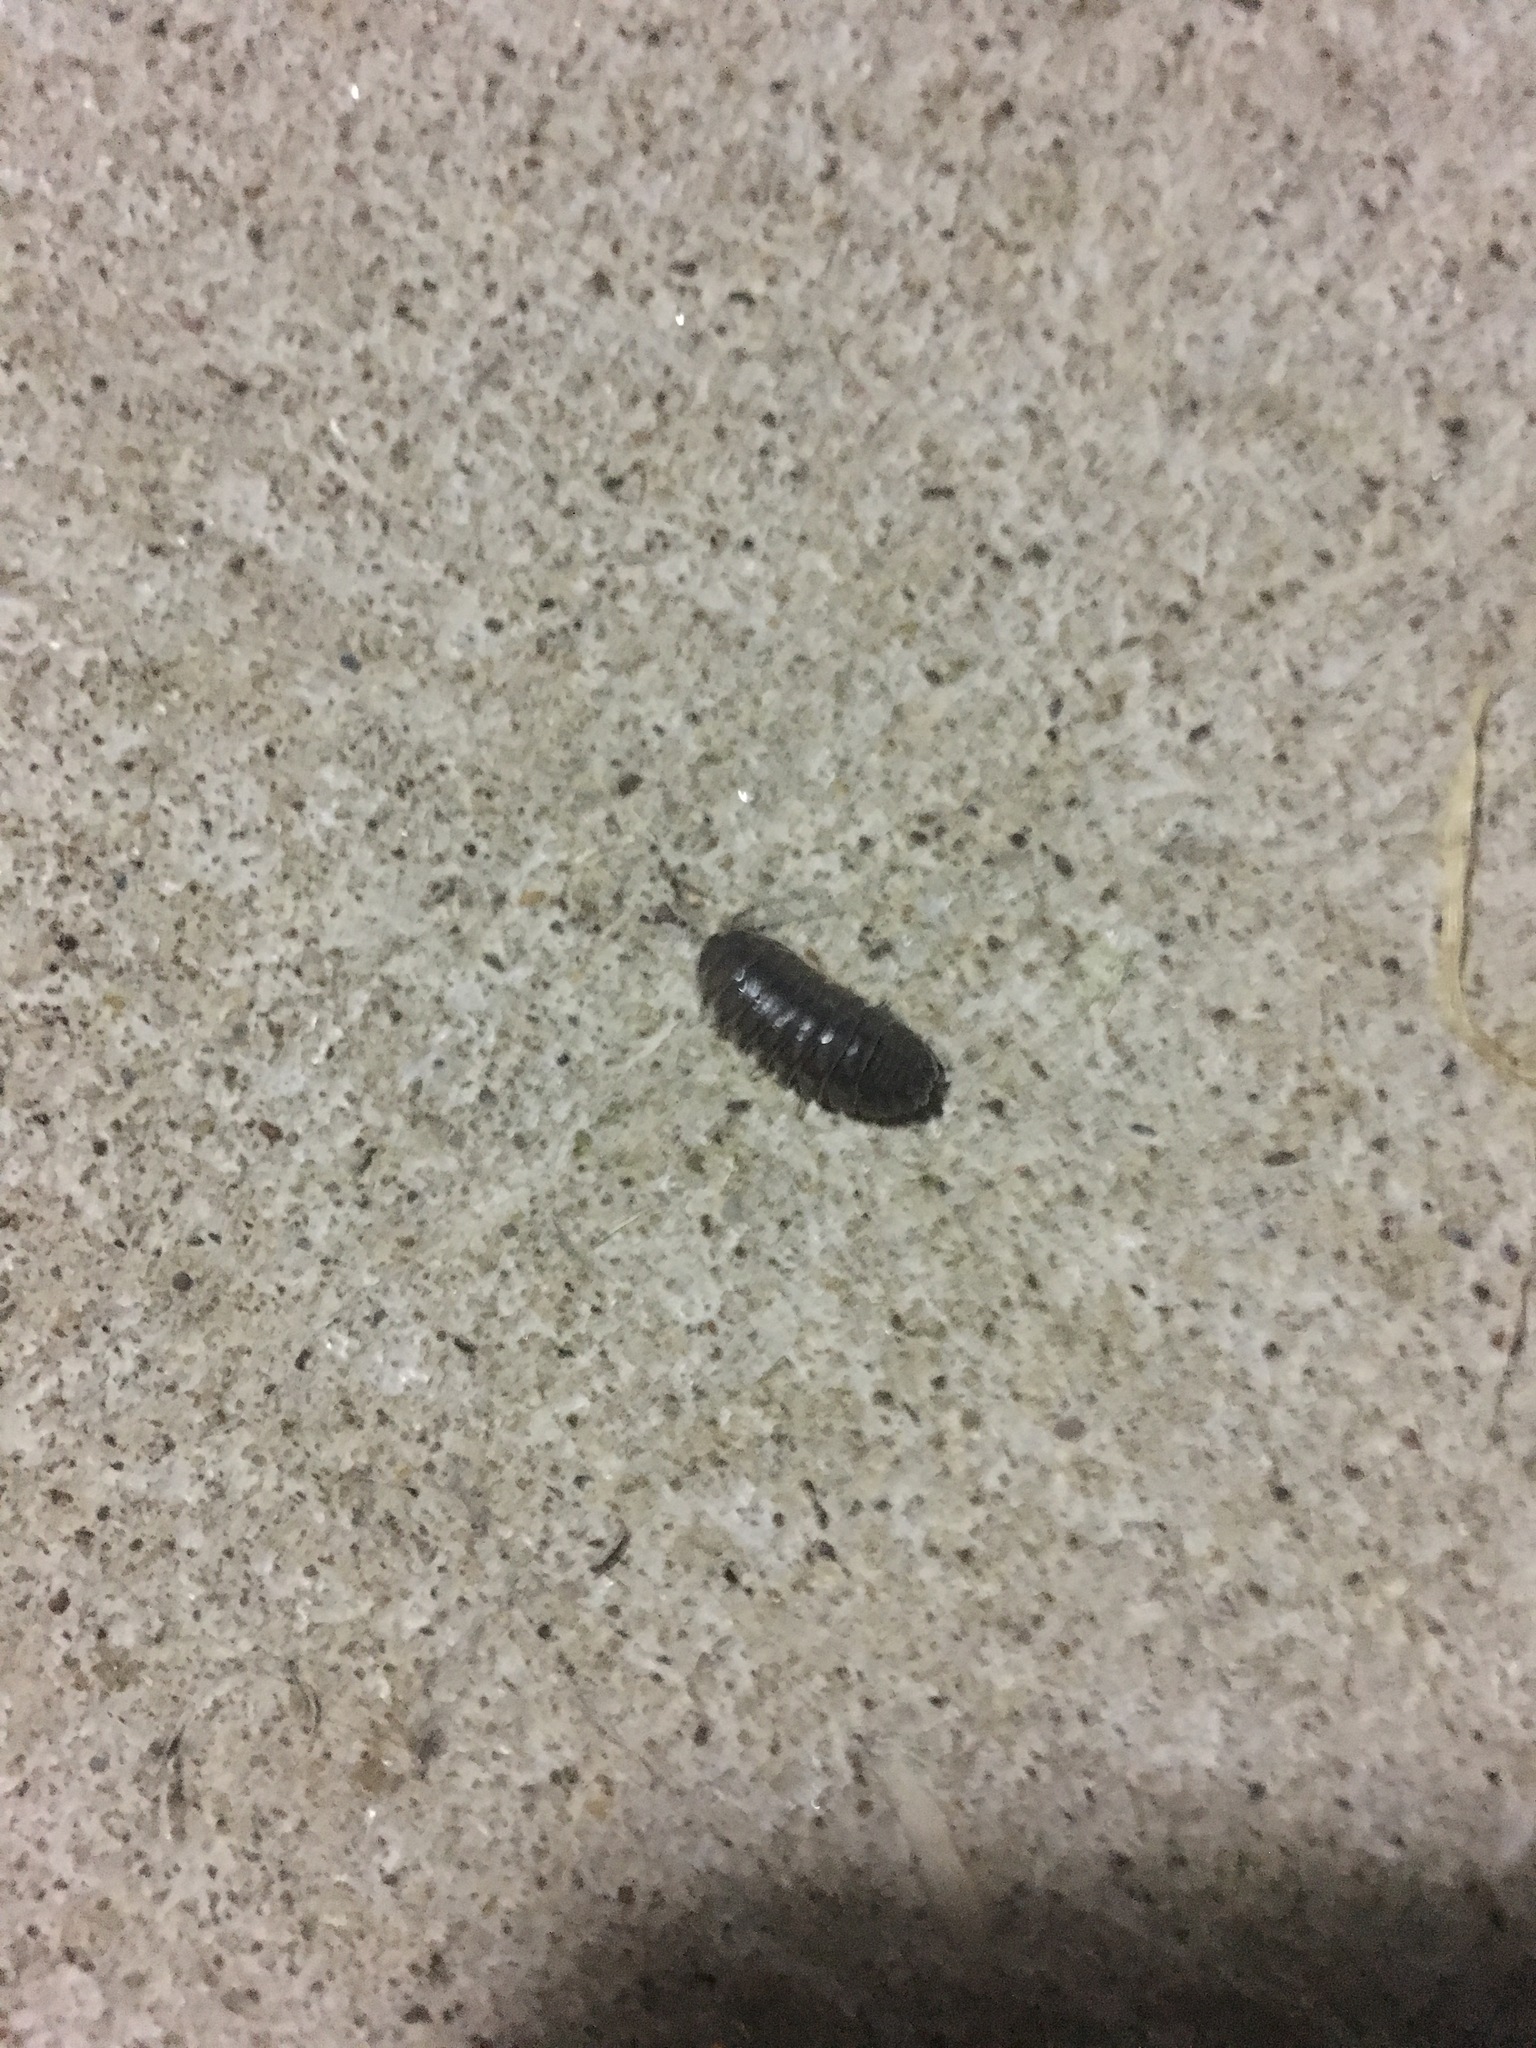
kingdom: Animalia
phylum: Arthropoda
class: Malacostraca
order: Isopoda
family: Armadillidiidae
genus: Armadillidium
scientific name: Armadillidium nasatum
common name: Isopod
